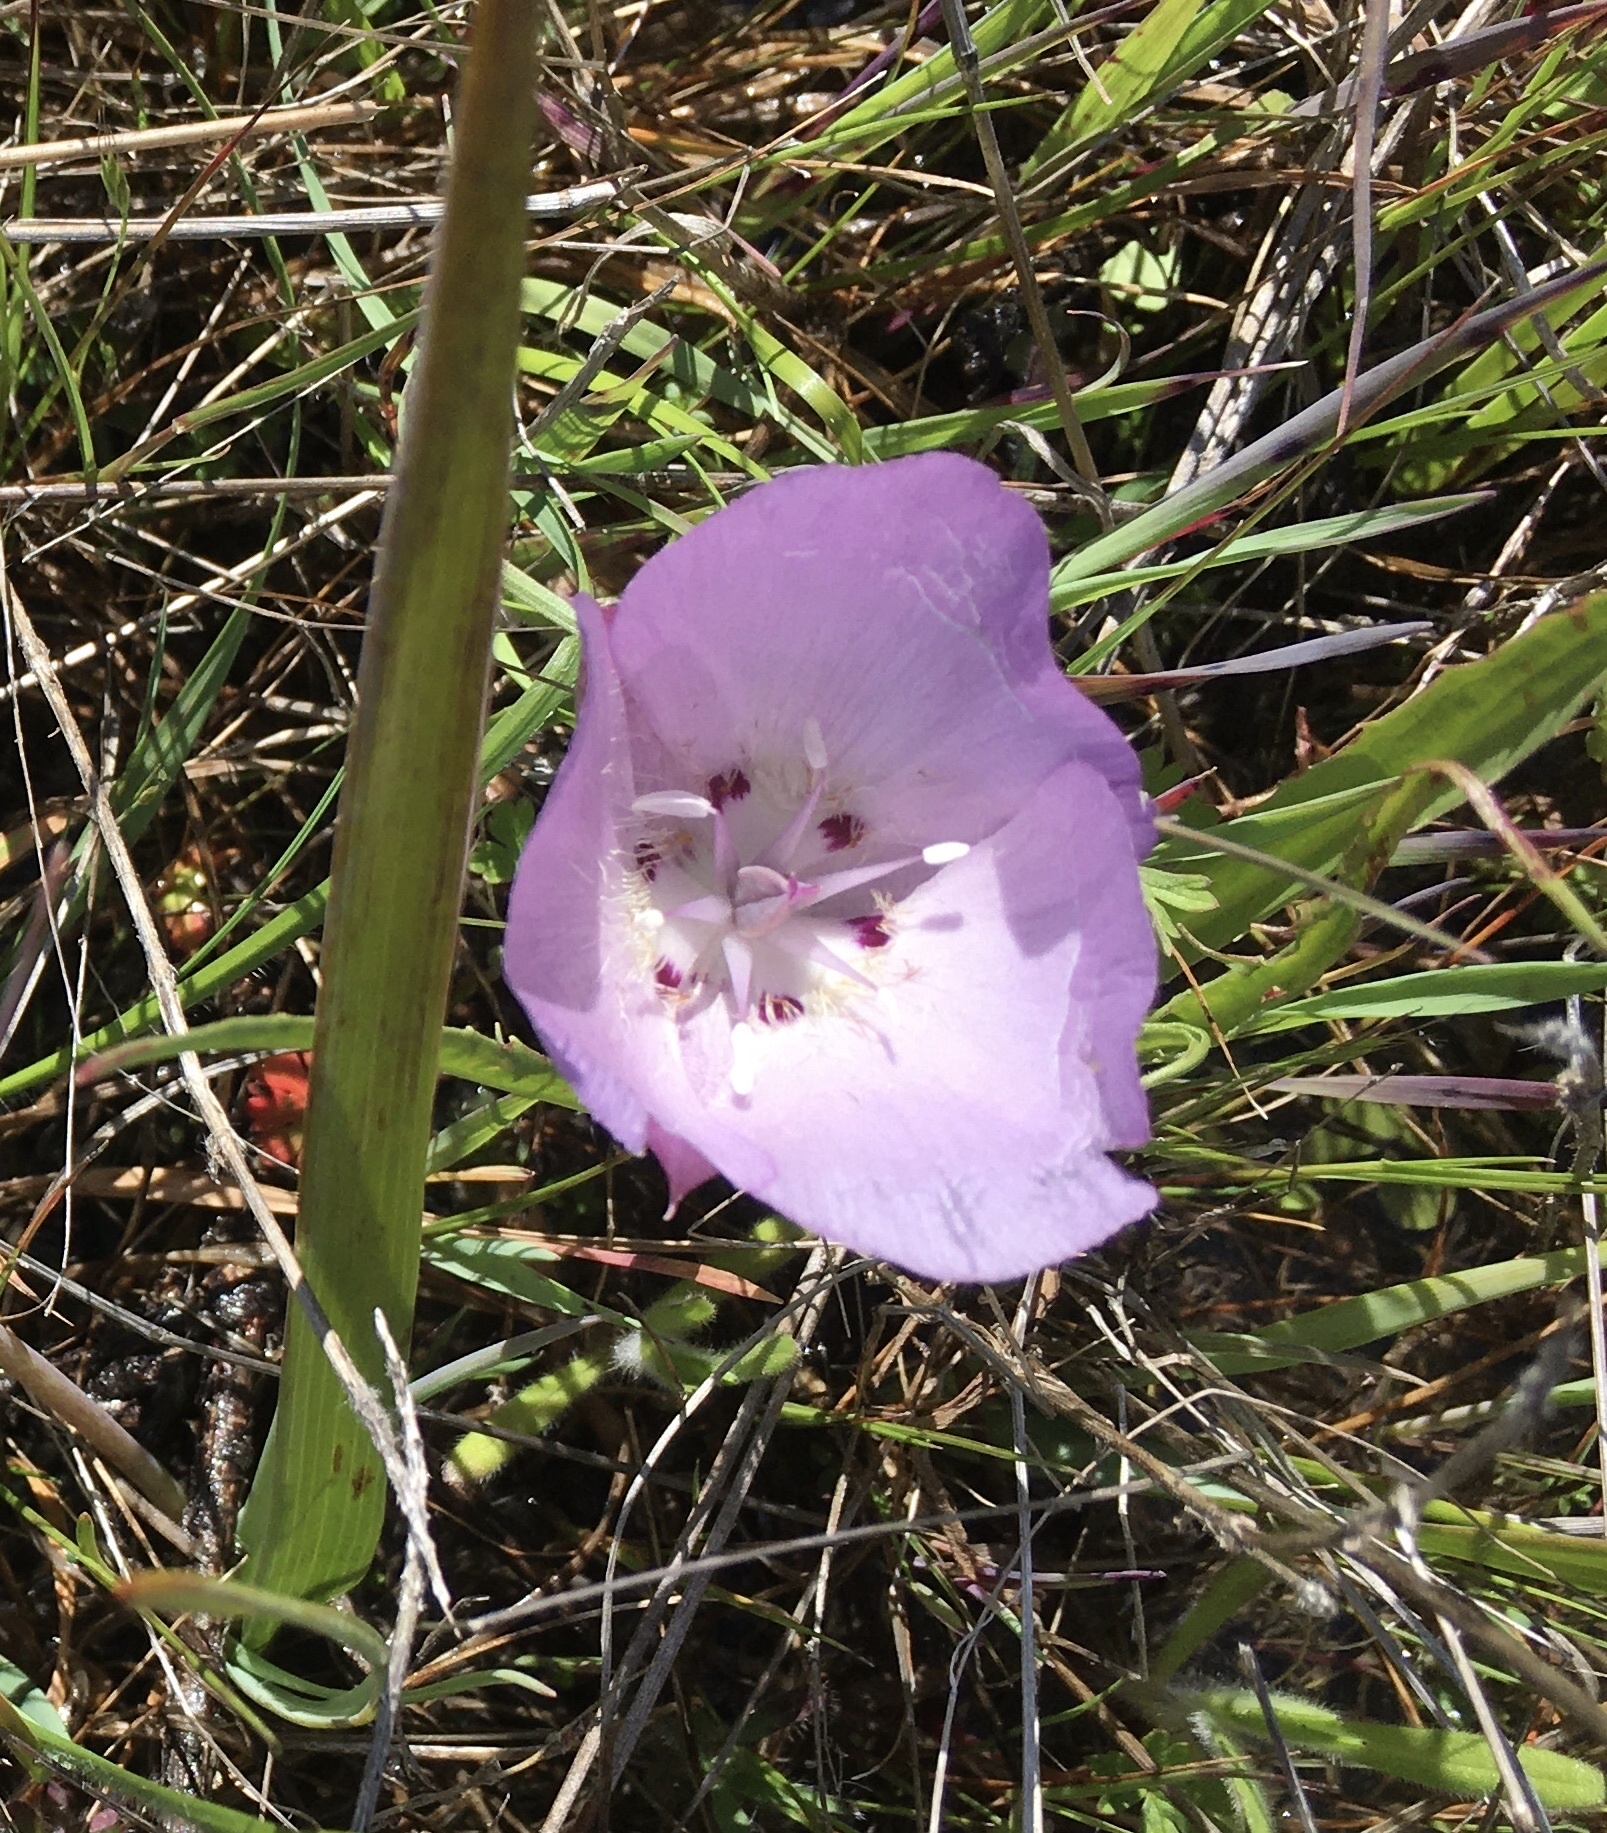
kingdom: Plantae
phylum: Tracheophyta
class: Liliopsida
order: Liliales
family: Liliaceae
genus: Calochortus
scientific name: Calochortus uniflorus
